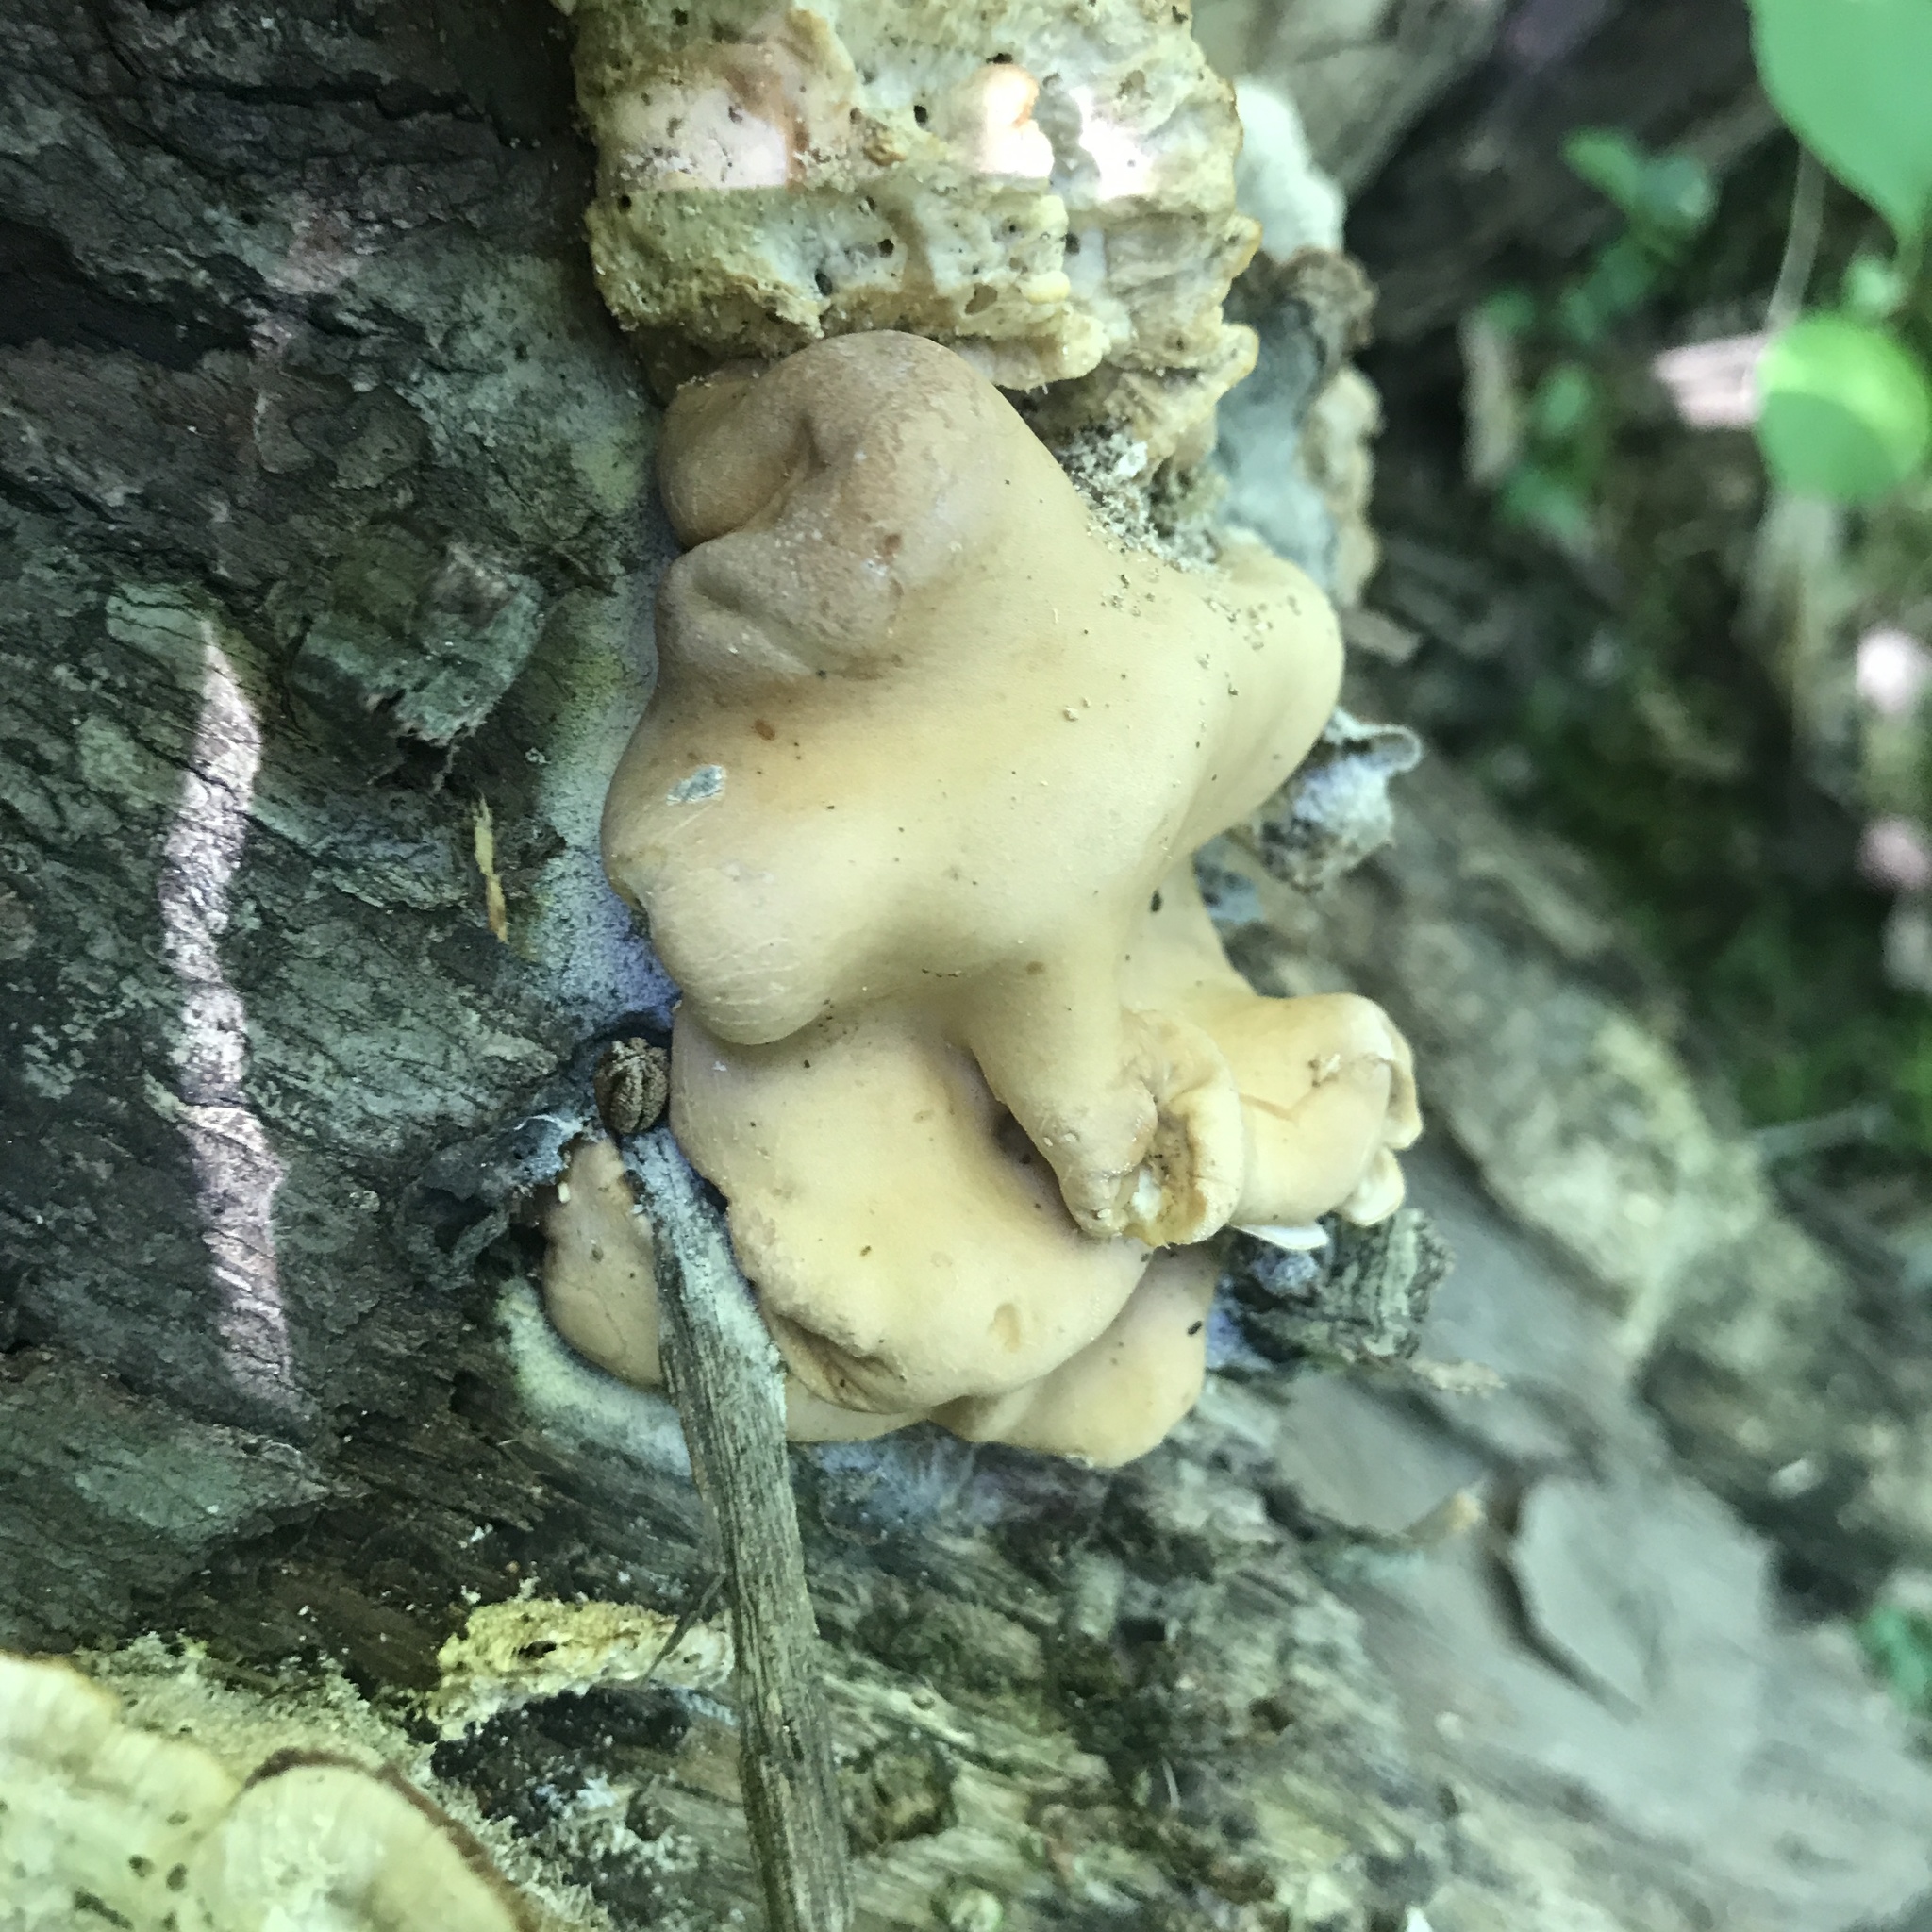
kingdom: Fungi
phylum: Ascomycota
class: Sordariomycetes
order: Hypocreales
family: Hypocreaceae
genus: Trichoderma
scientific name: Trichoderma peltatum
